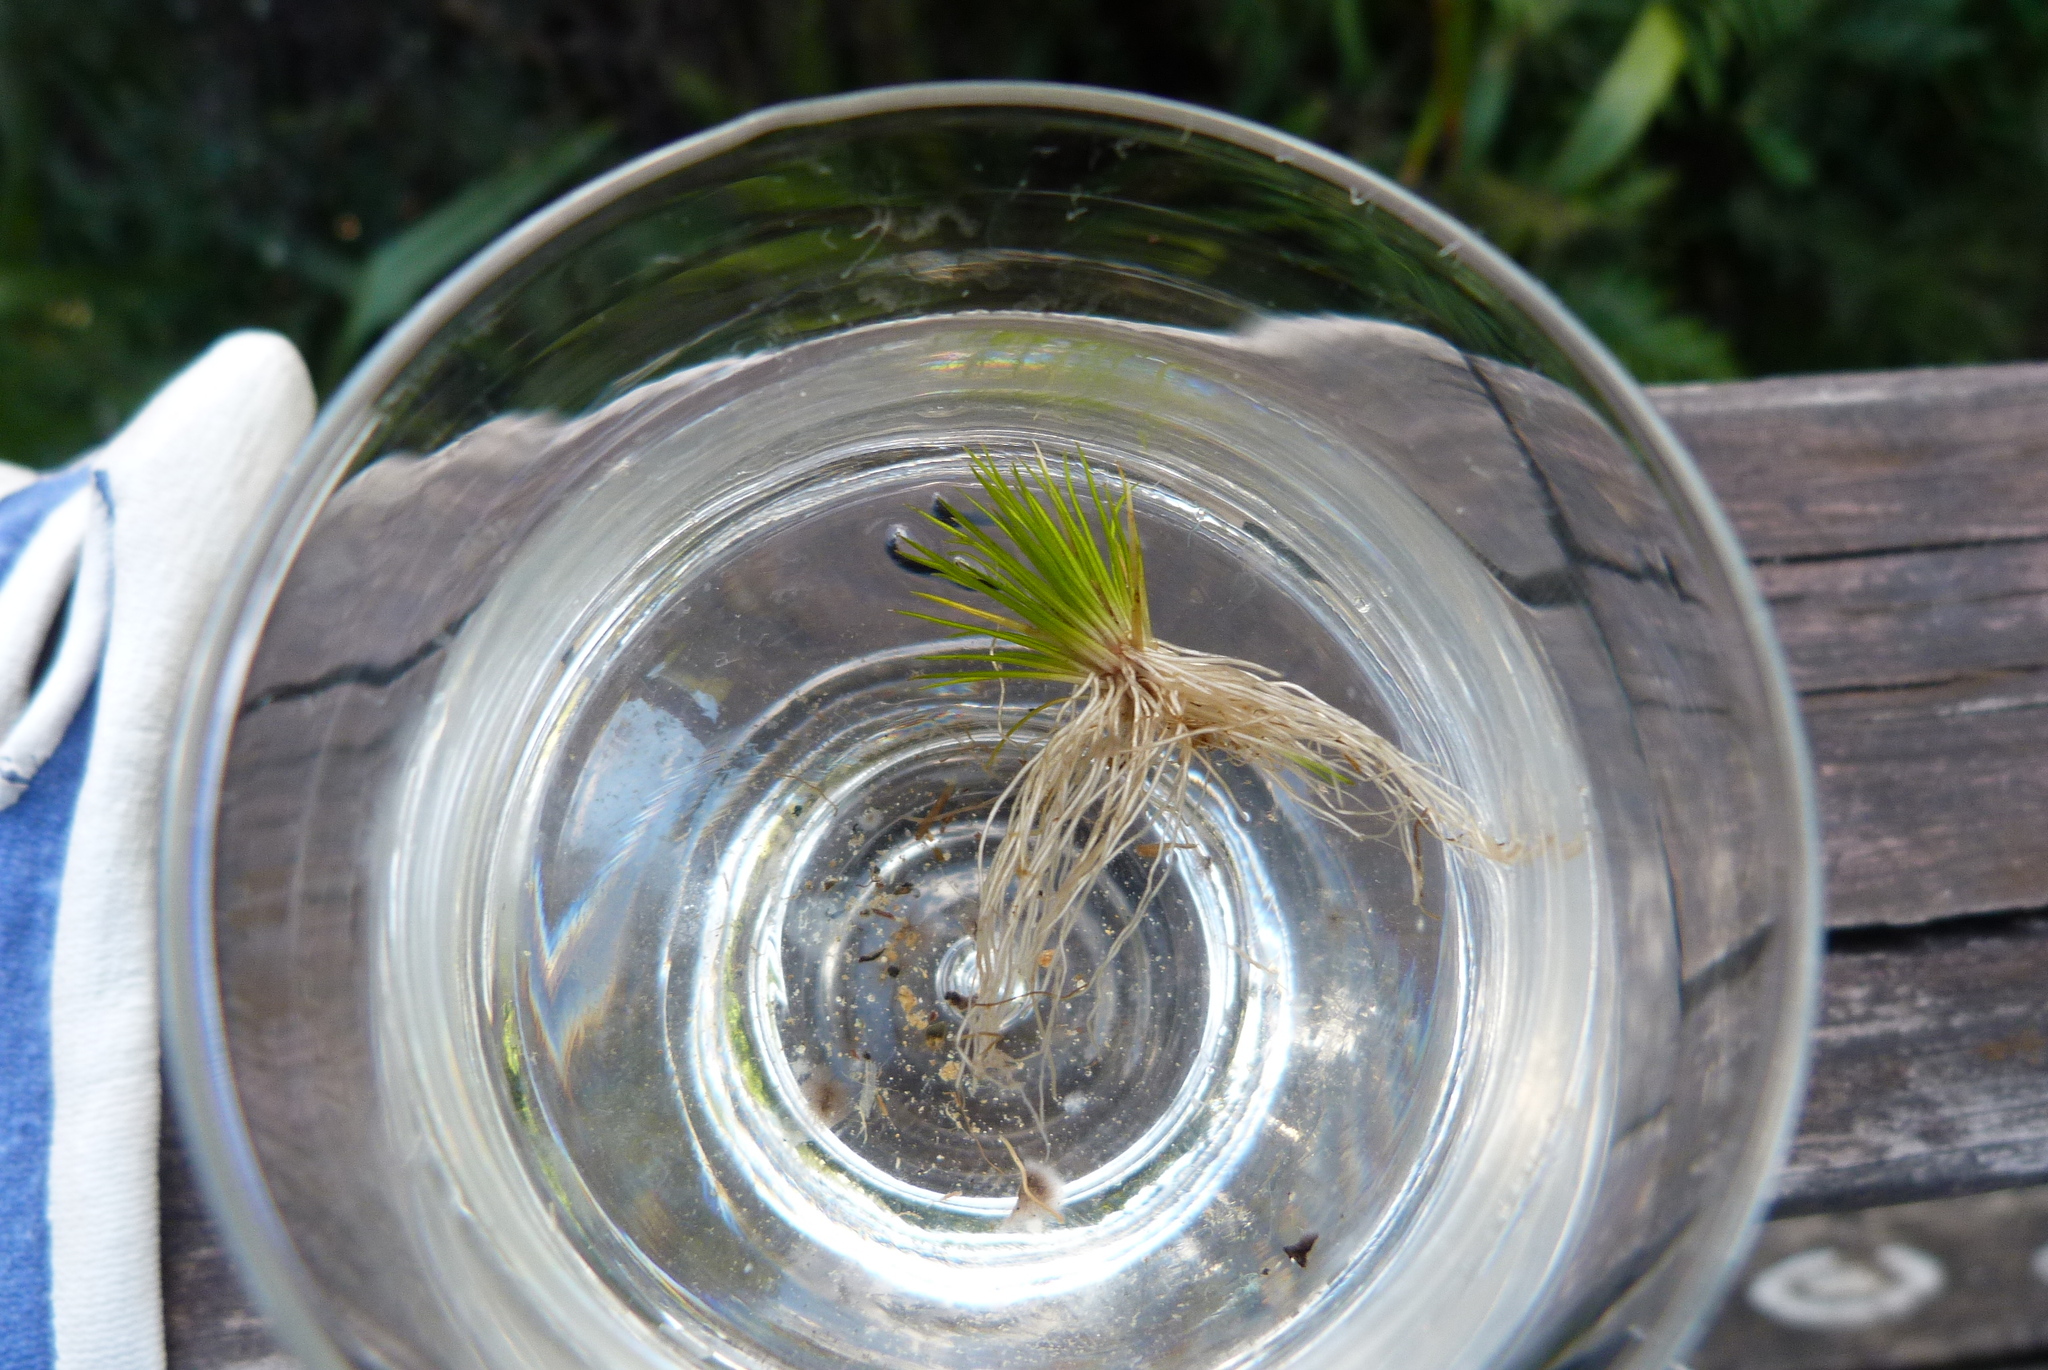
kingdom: Plantae
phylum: Tracheophyta
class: Magnoliopsida
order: Nymphaeales
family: Hydatellaceae
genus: Trithuria
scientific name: Trithuria brevistyla
